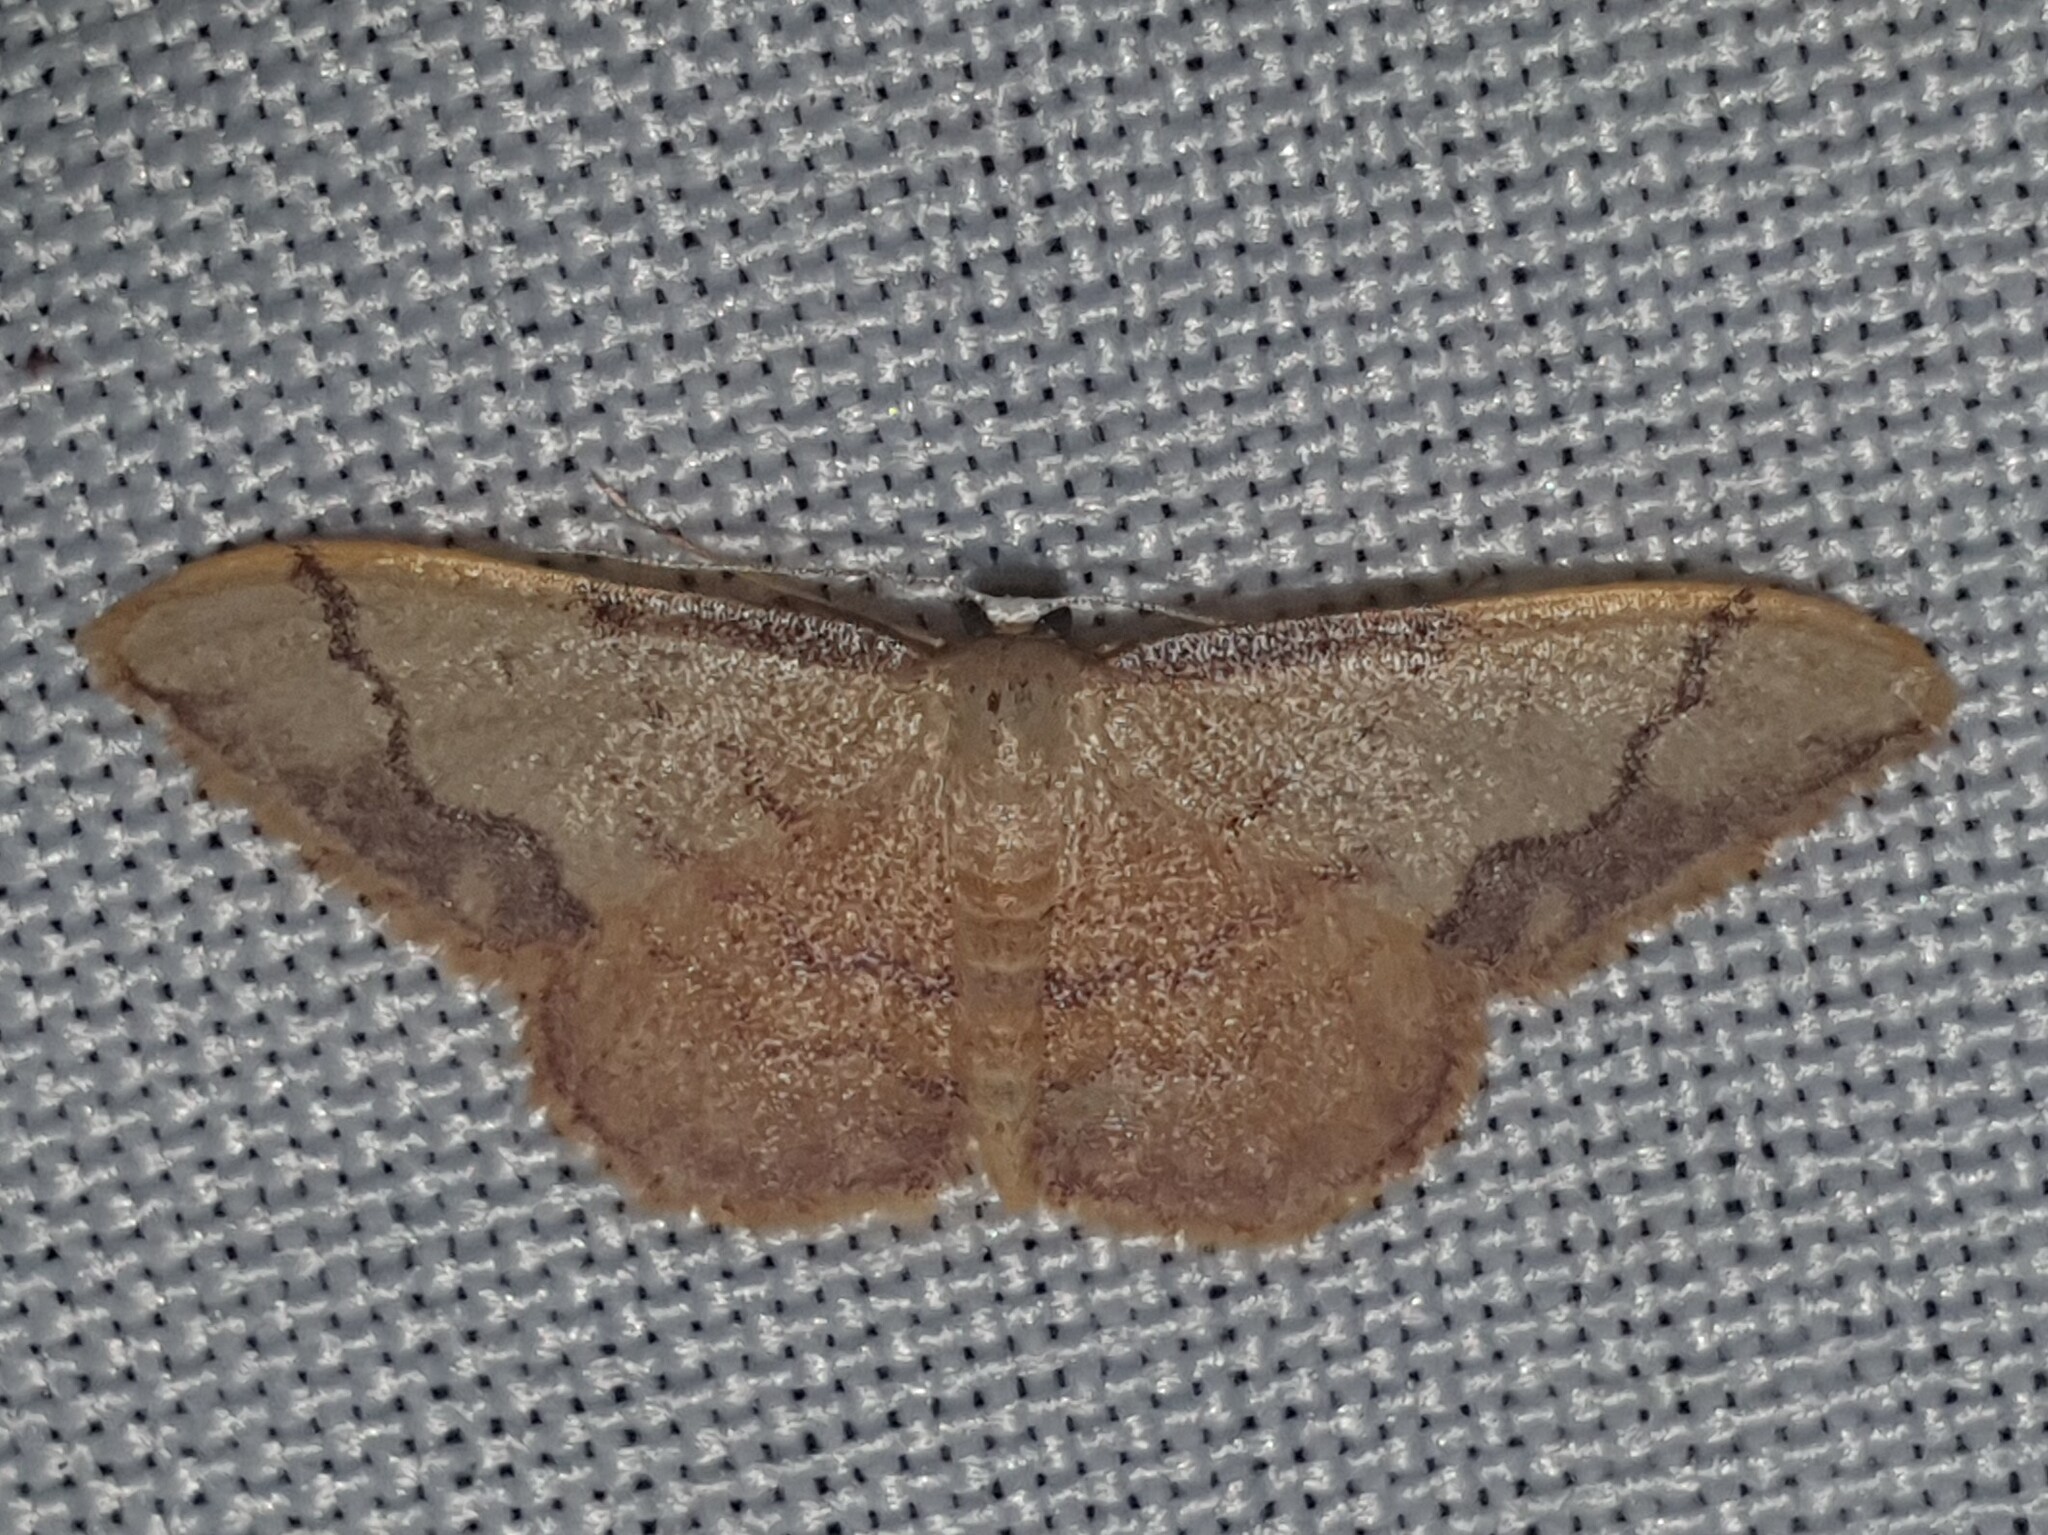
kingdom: Animalia
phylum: Arthropoda
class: Insecta
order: Lepidoptera
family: Geometridae
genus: Idaea
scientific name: Idaea ostrinaria
